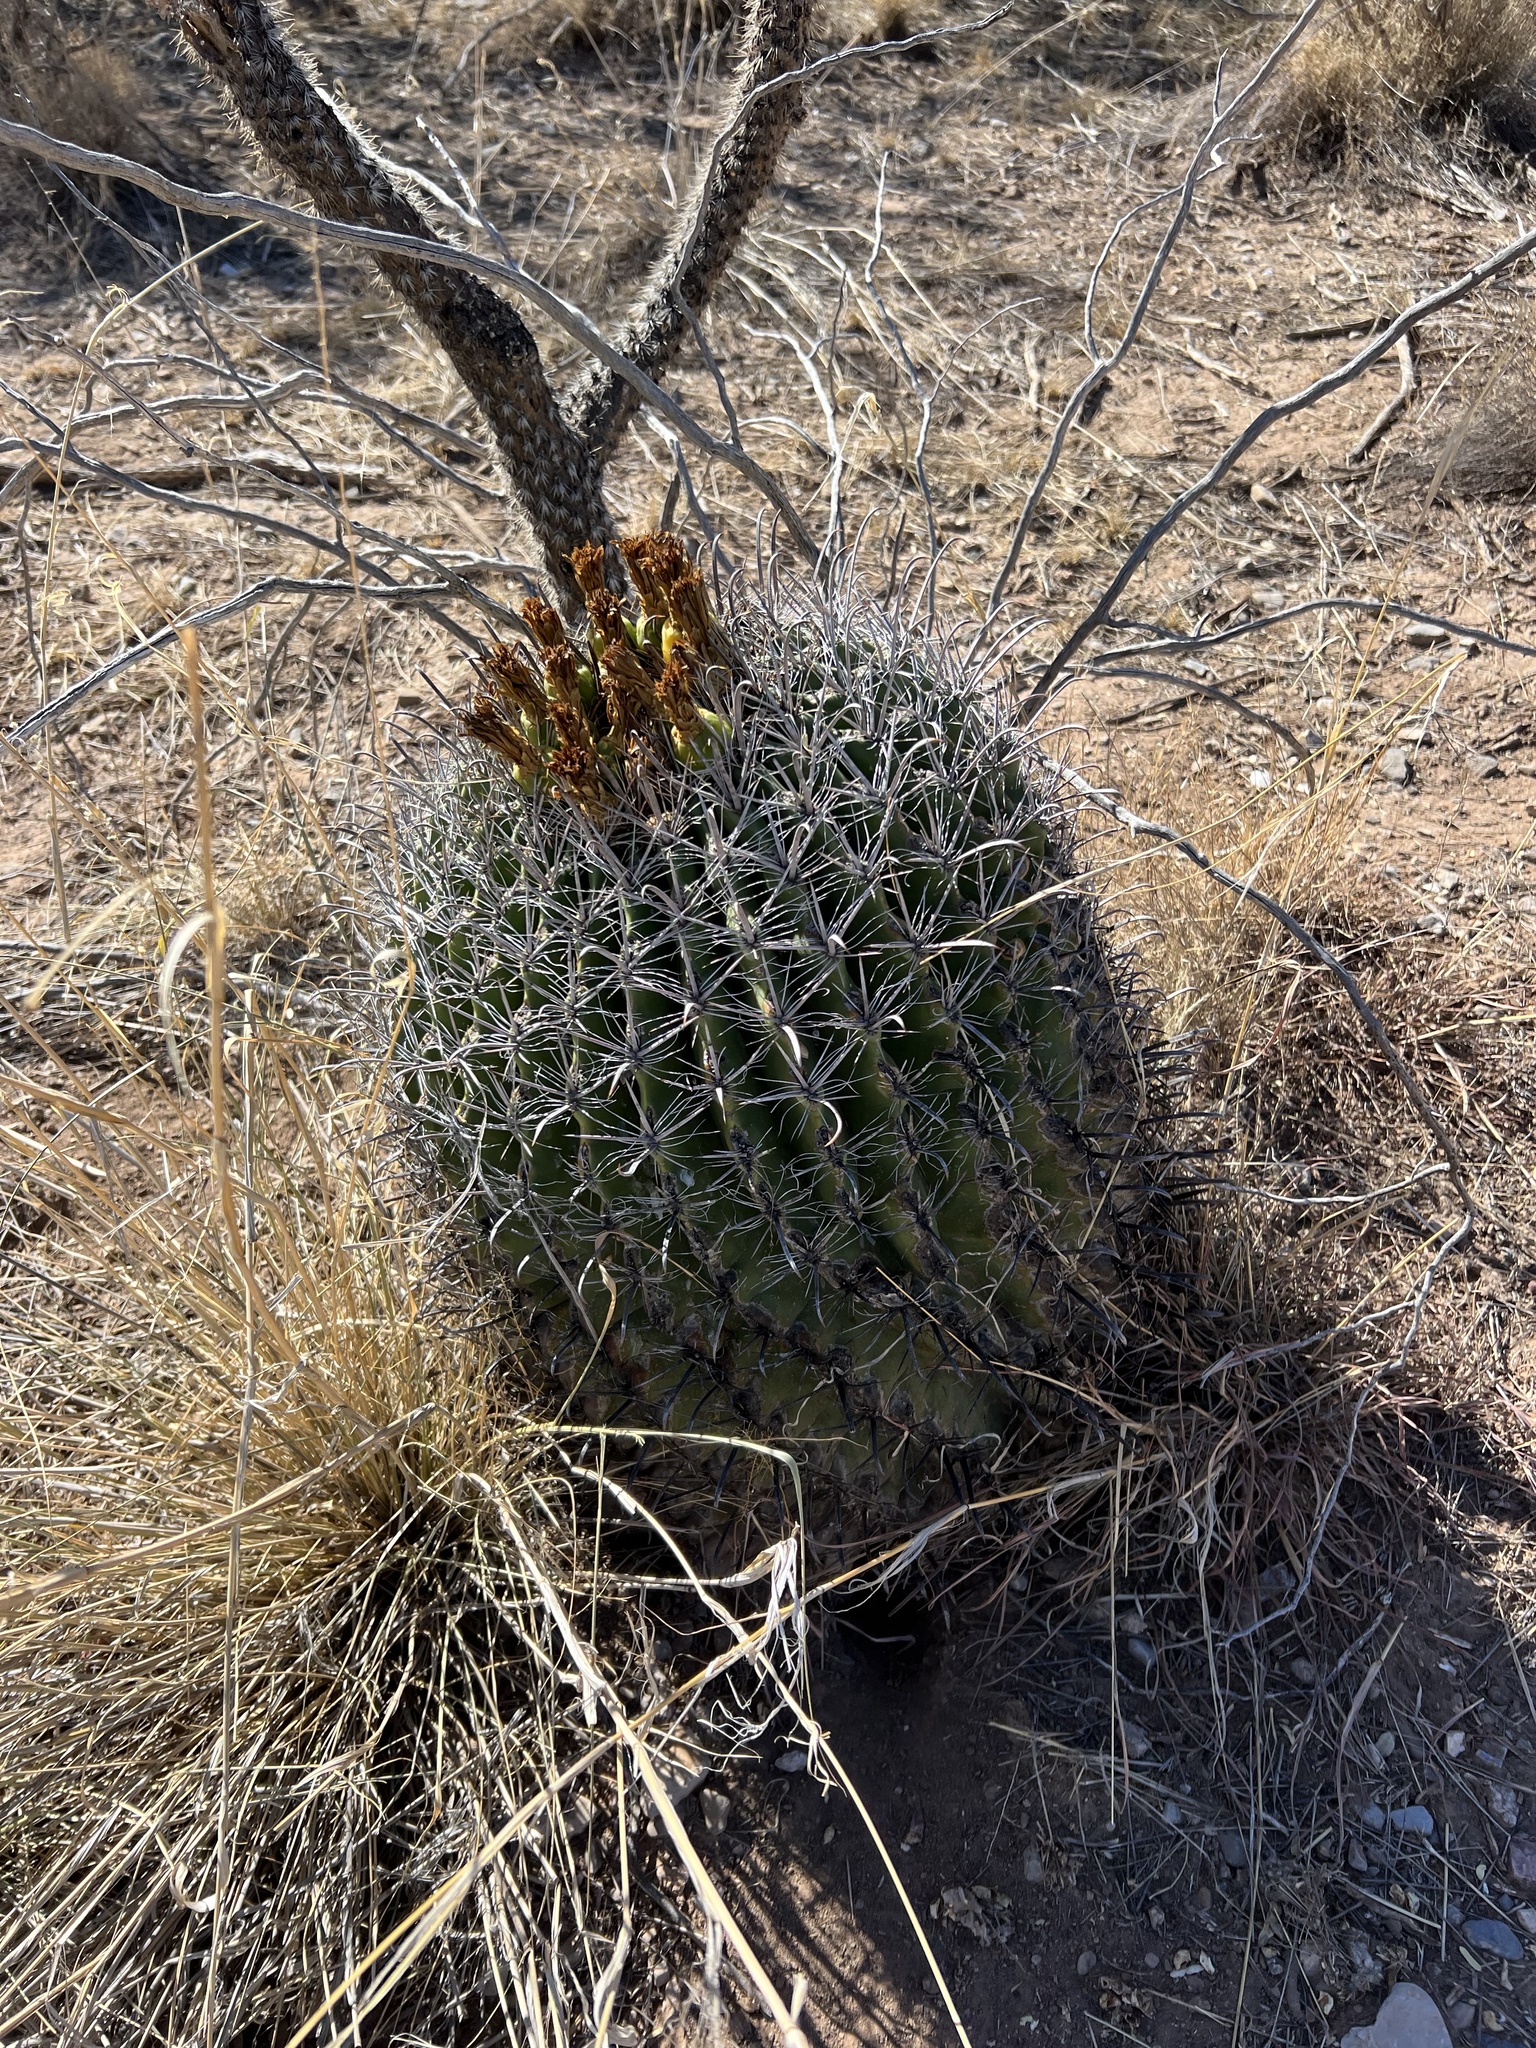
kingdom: Plantae
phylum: Tracheophyta
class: Magnoliopsida
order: Caryophyllales
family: Cactaceae
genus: Ferocactus
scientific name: Ferocactus wislizeni
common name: Candy barrel cactus
